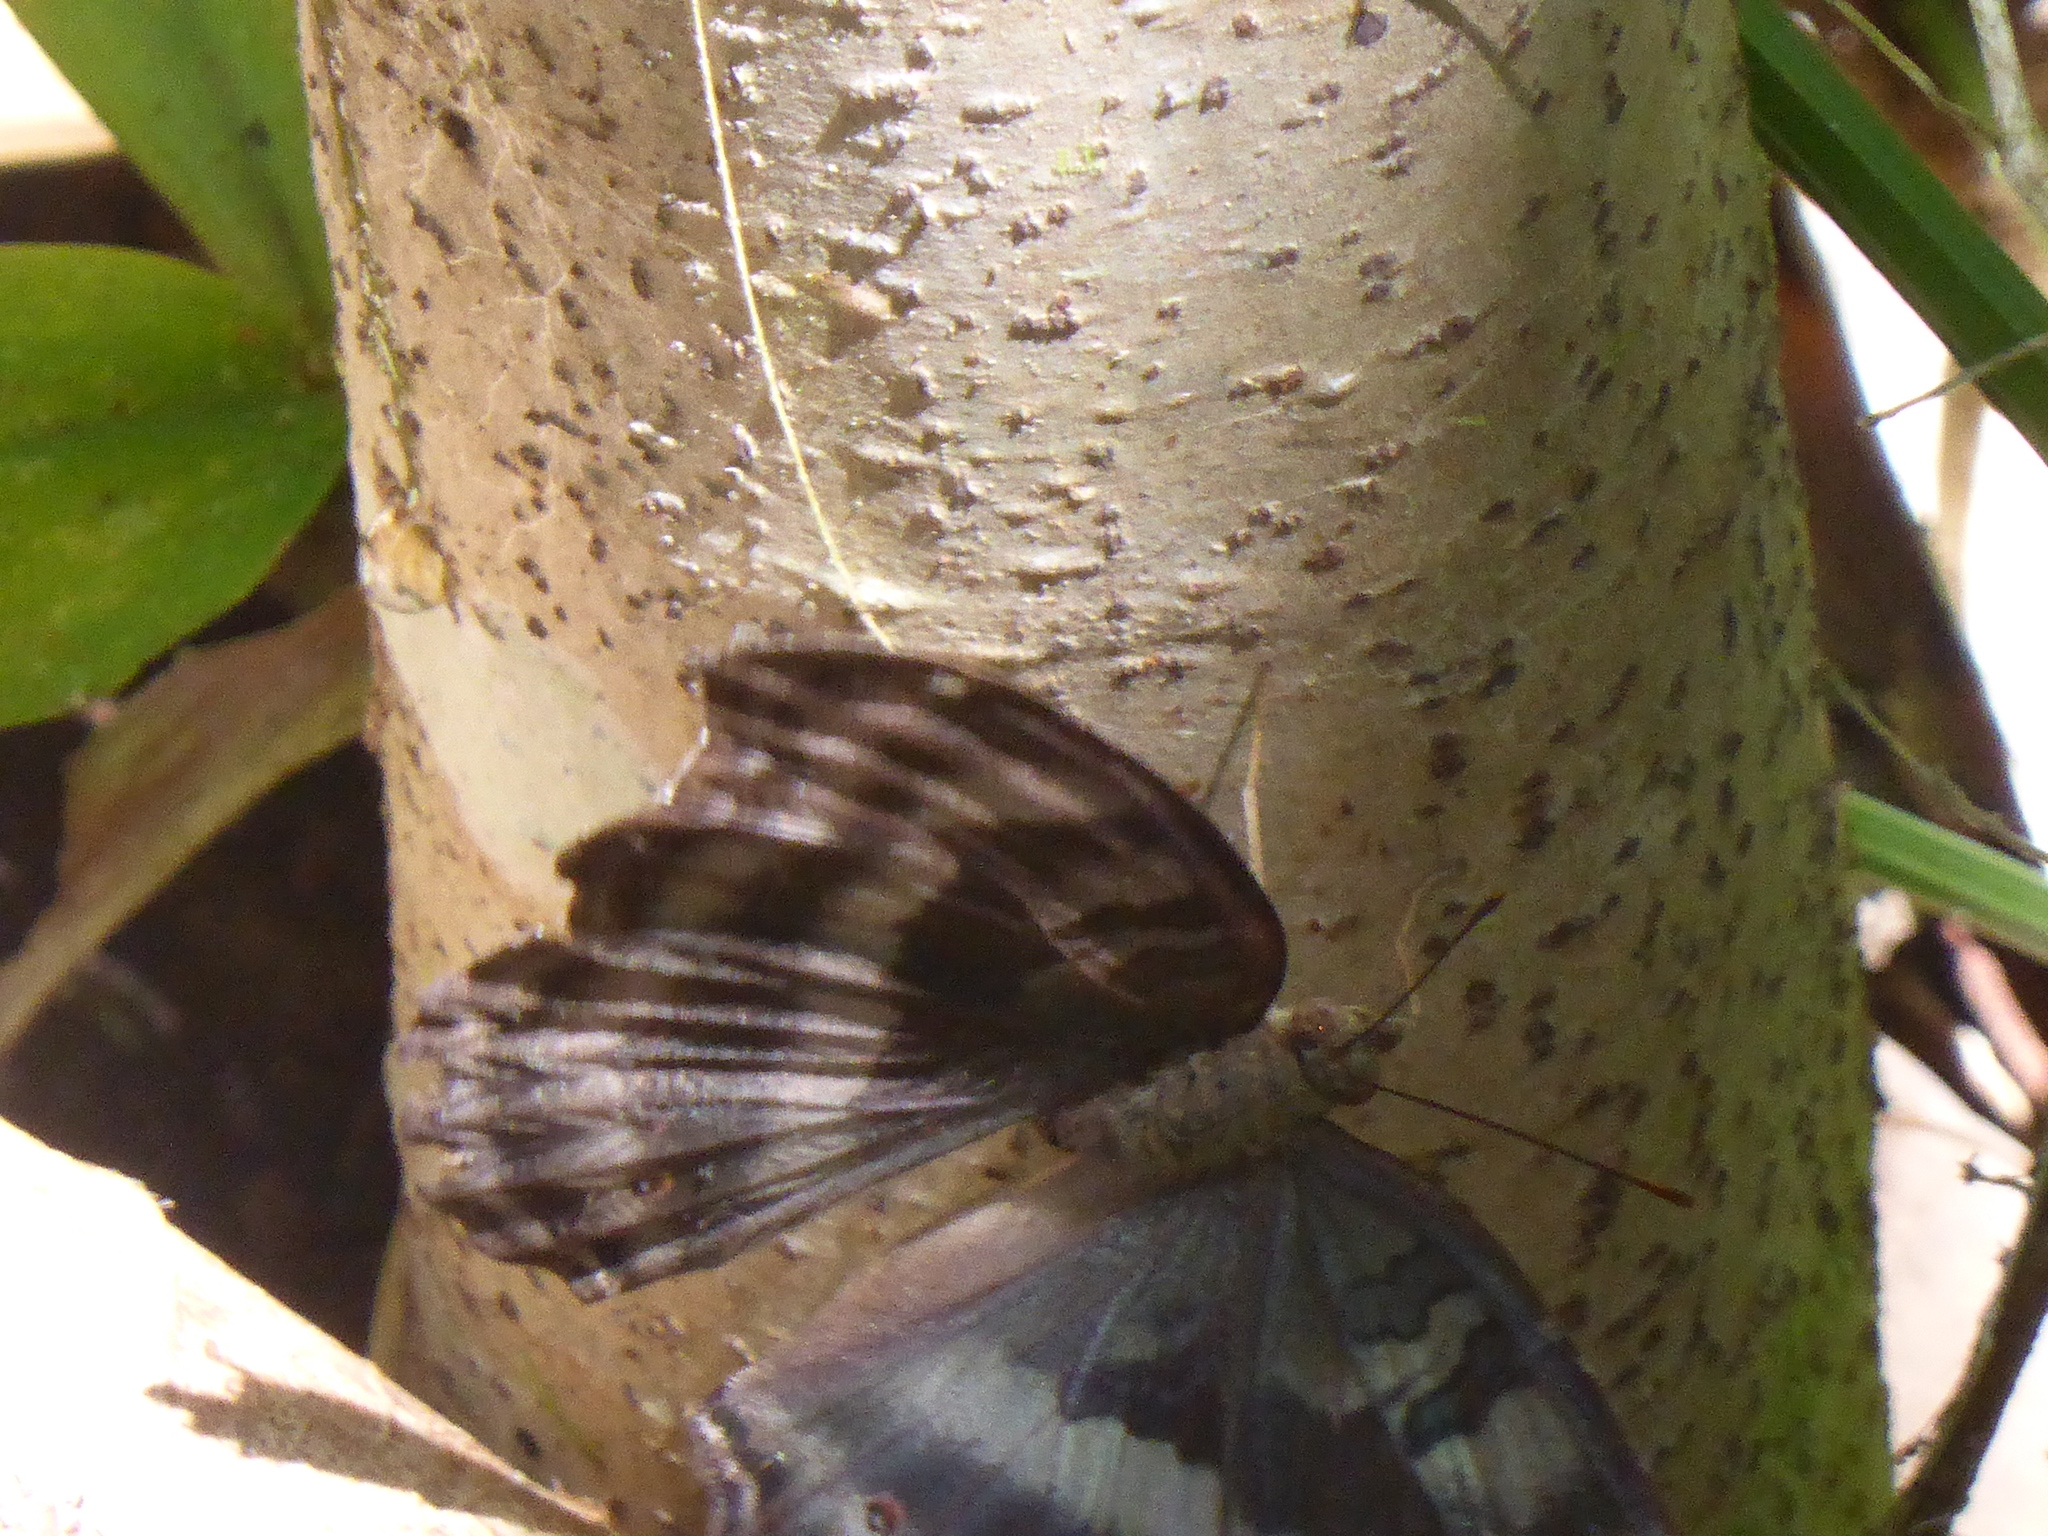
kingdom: Animalia
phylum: Arthropoda
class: Insecta
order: Lepidoptera
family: Nymphalidae
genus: Junonia
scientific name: Junonia iphita
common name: Chocolate pansy
